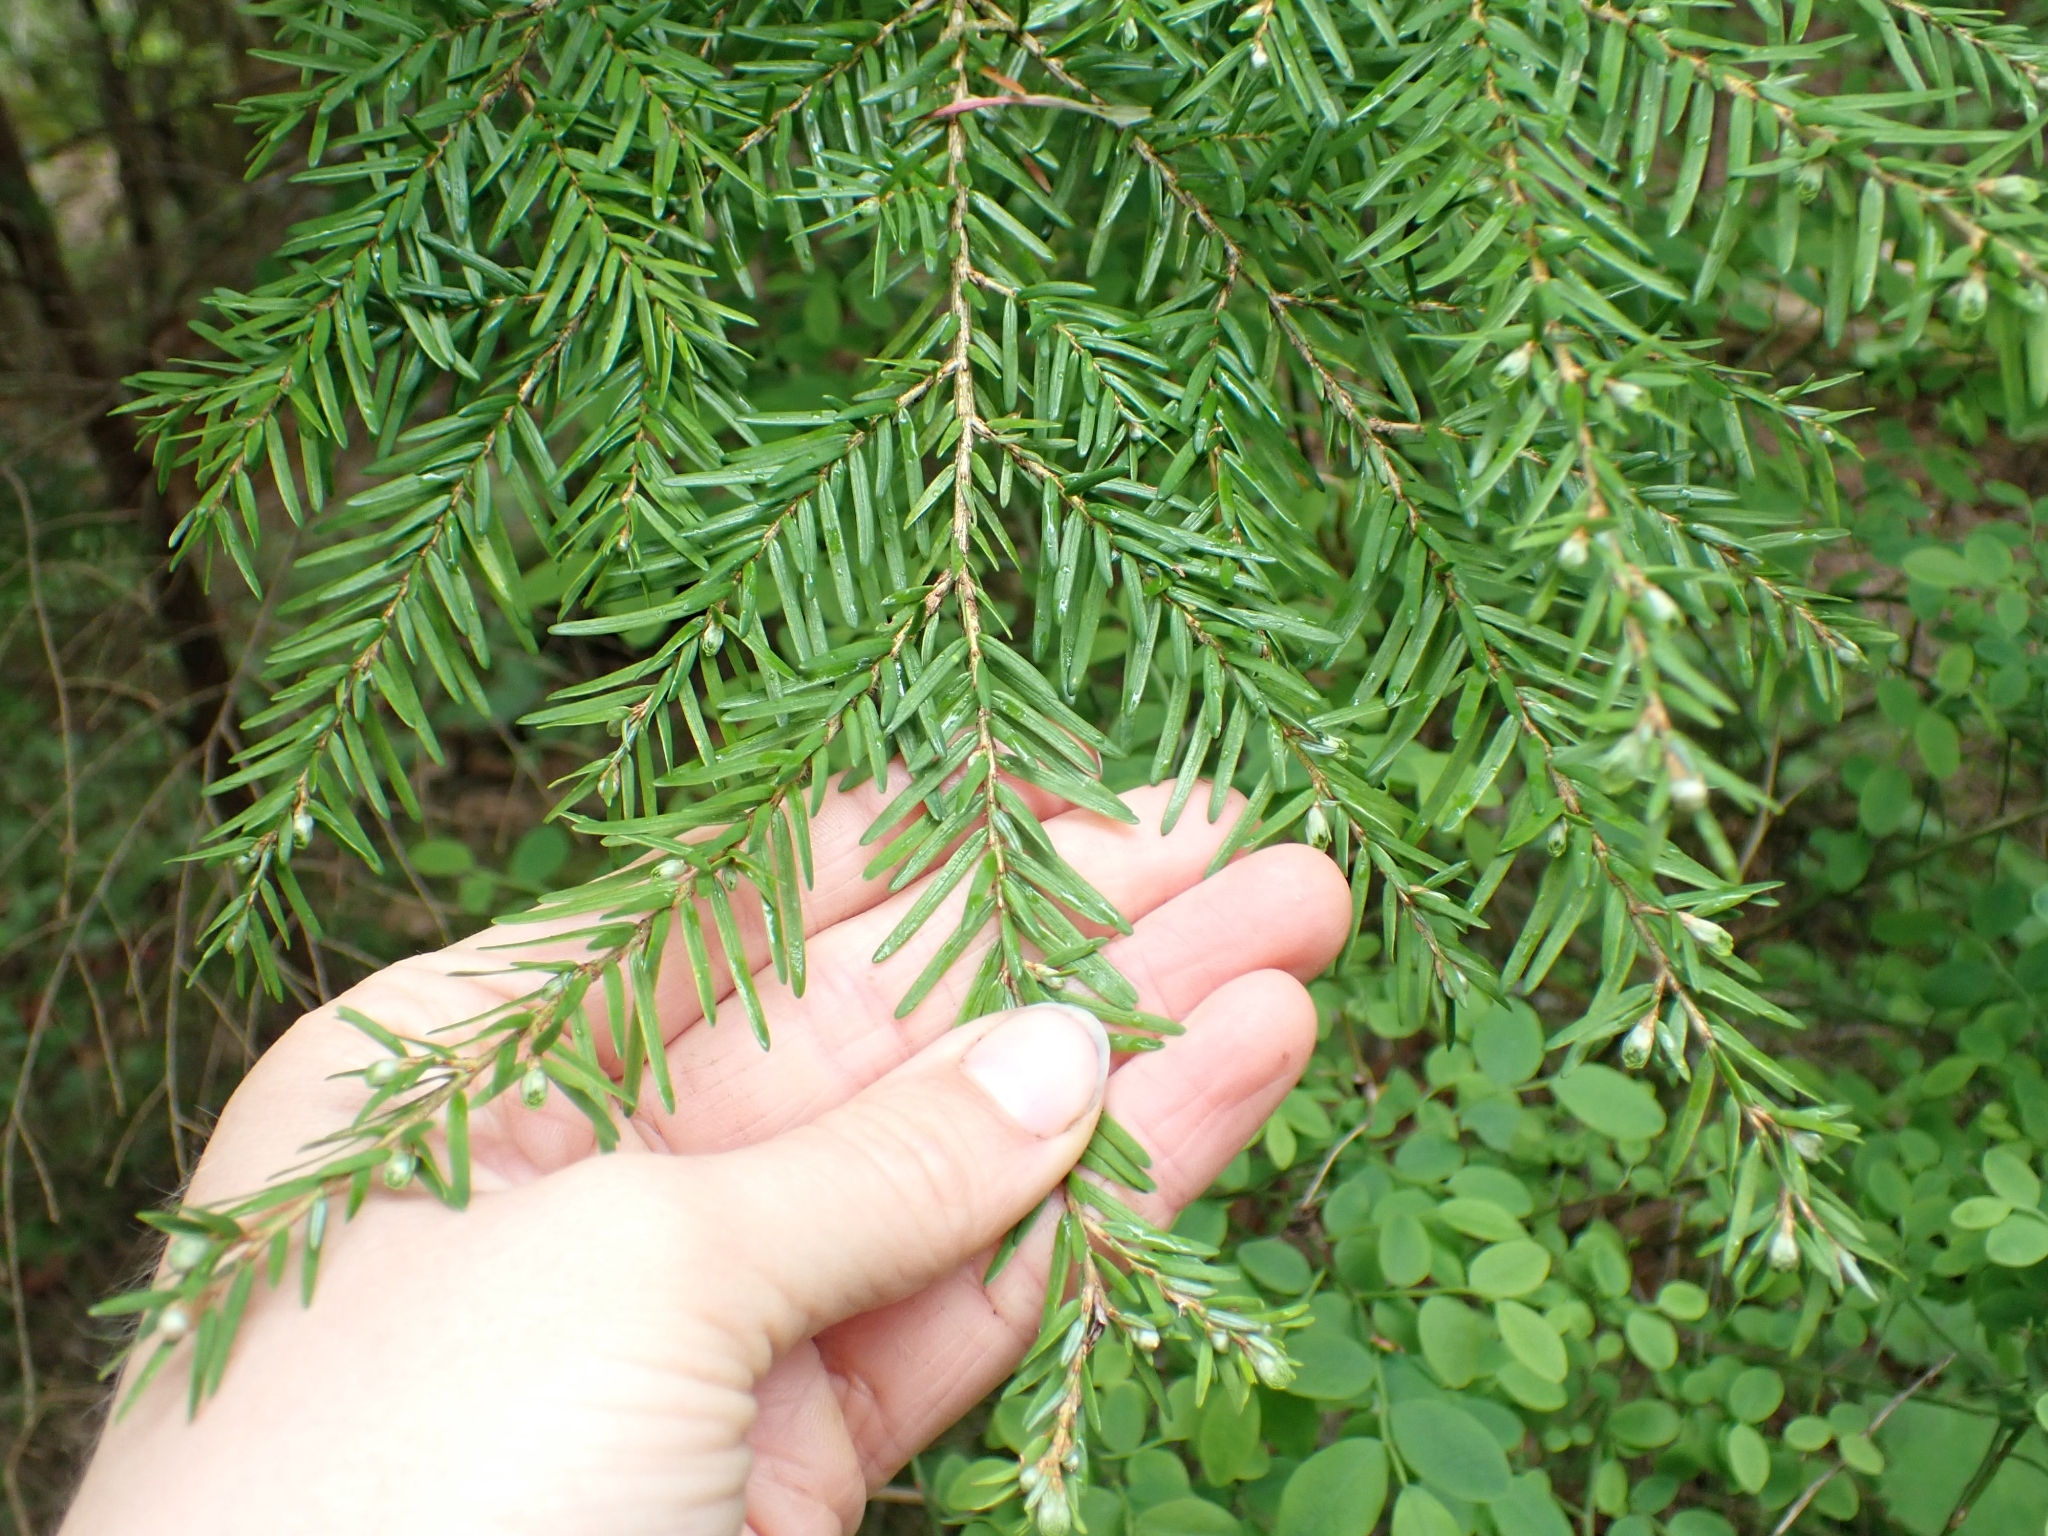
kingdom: Plantae
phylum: Tracheophyta
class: Pinopsida
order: Pinales
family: Pinaceae
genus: Tsuga
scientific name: Tsuga heterophylla
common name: Western hemlock
